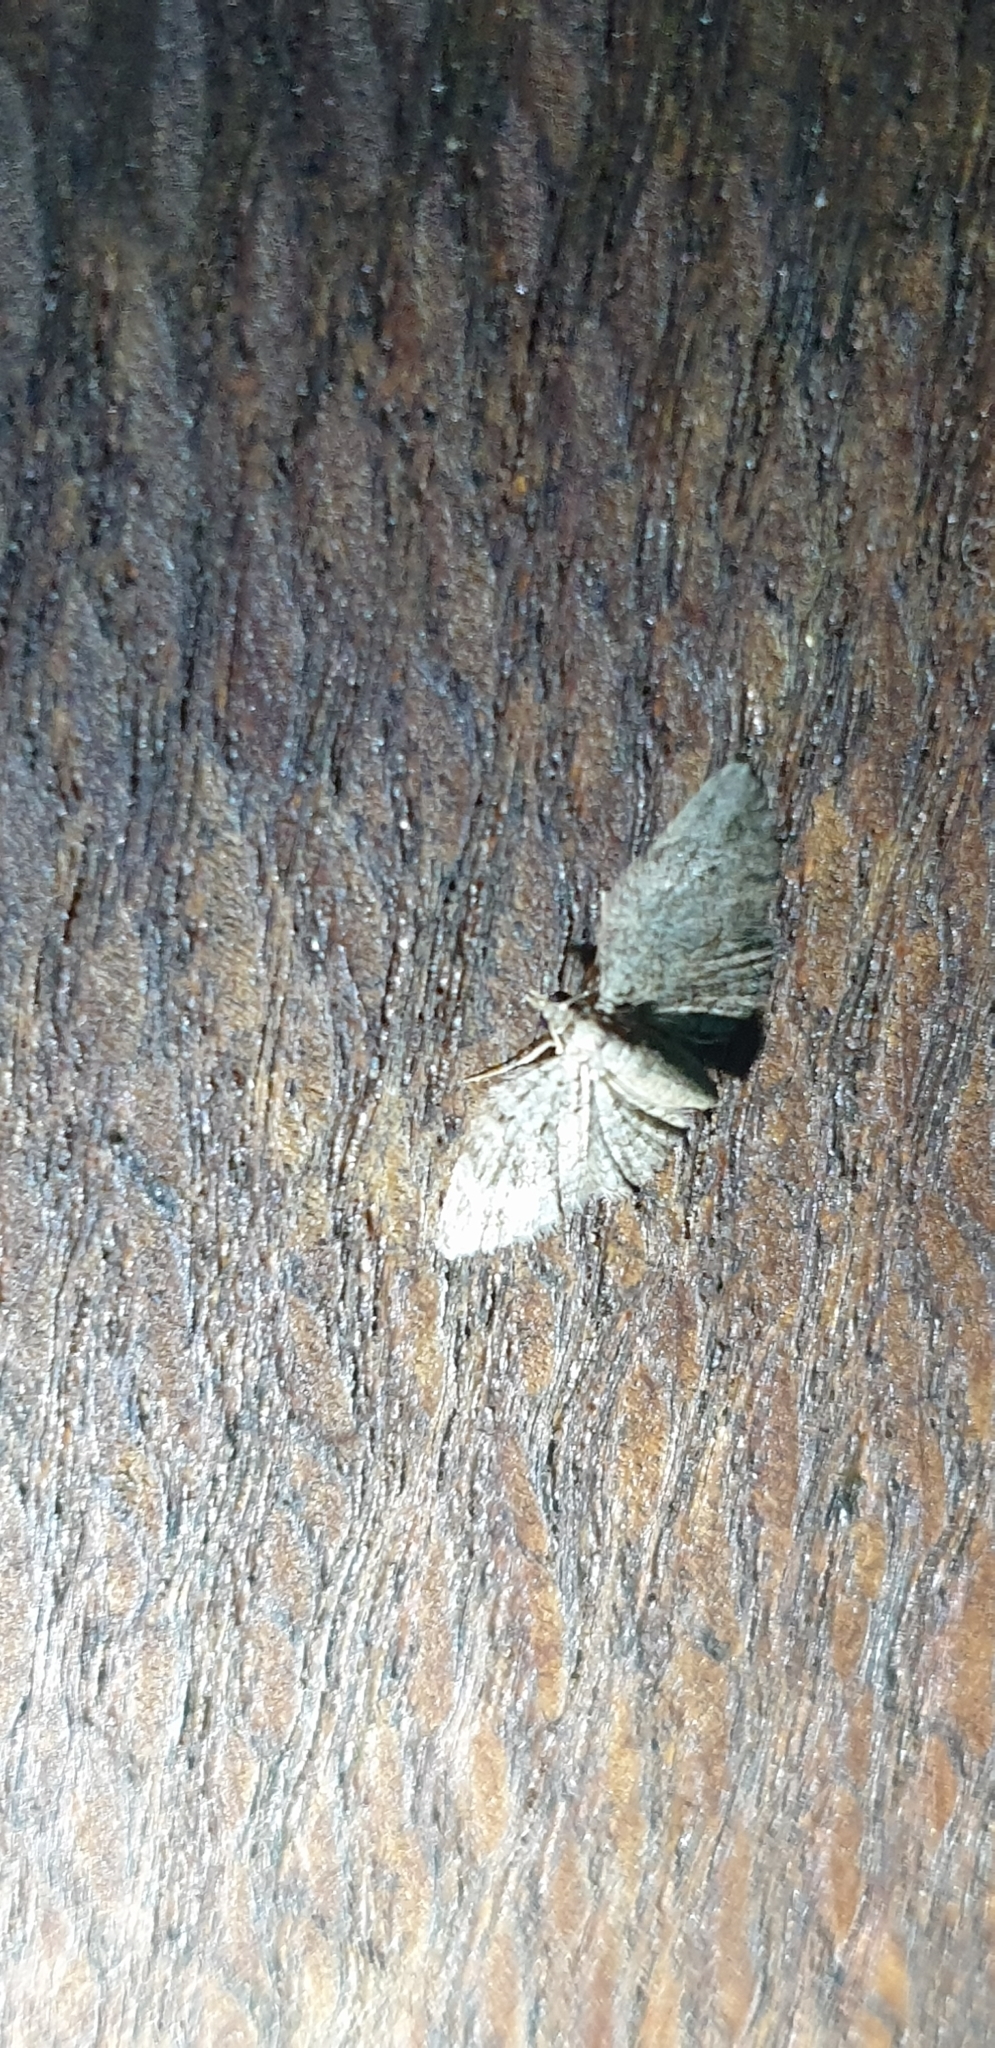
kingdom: Animalia
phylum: Arthropoda
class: Insecta
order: Lepidoptera
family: Geometridae
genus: Chloroclystis
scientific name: Chloroclystis pyrrholopha
